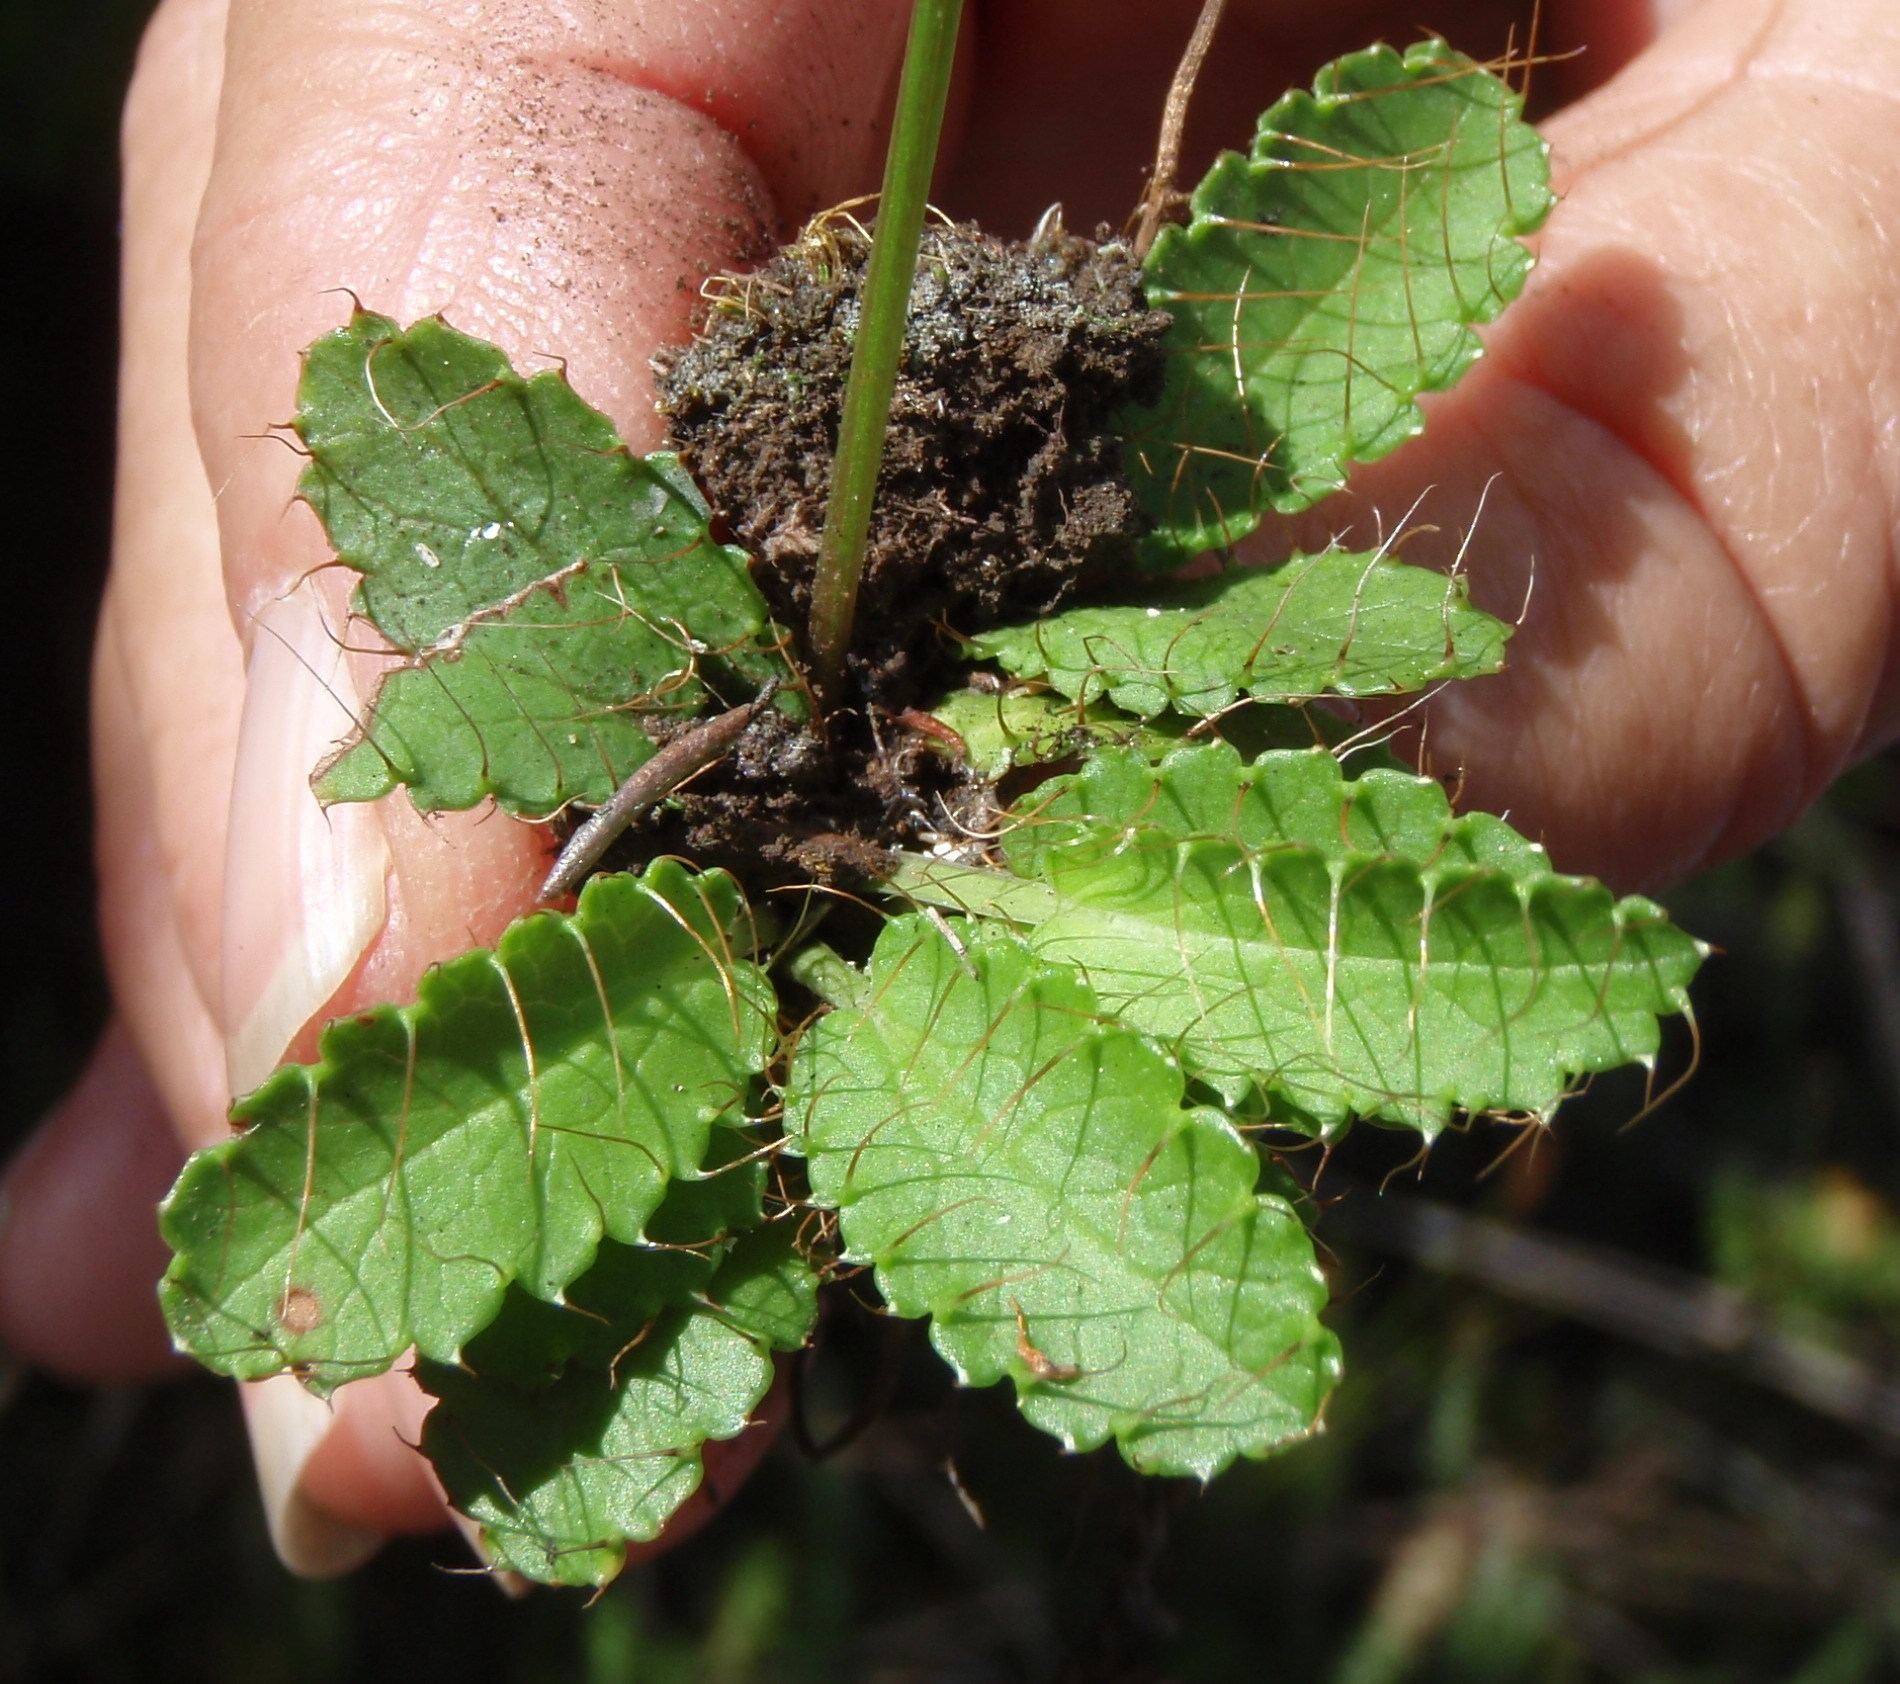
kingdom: Plantae
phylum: Tracheophyta
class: Magnoliopsida
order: Apiales
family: Apiaceae
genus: Alepidea
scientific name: Alepidea delicatula
